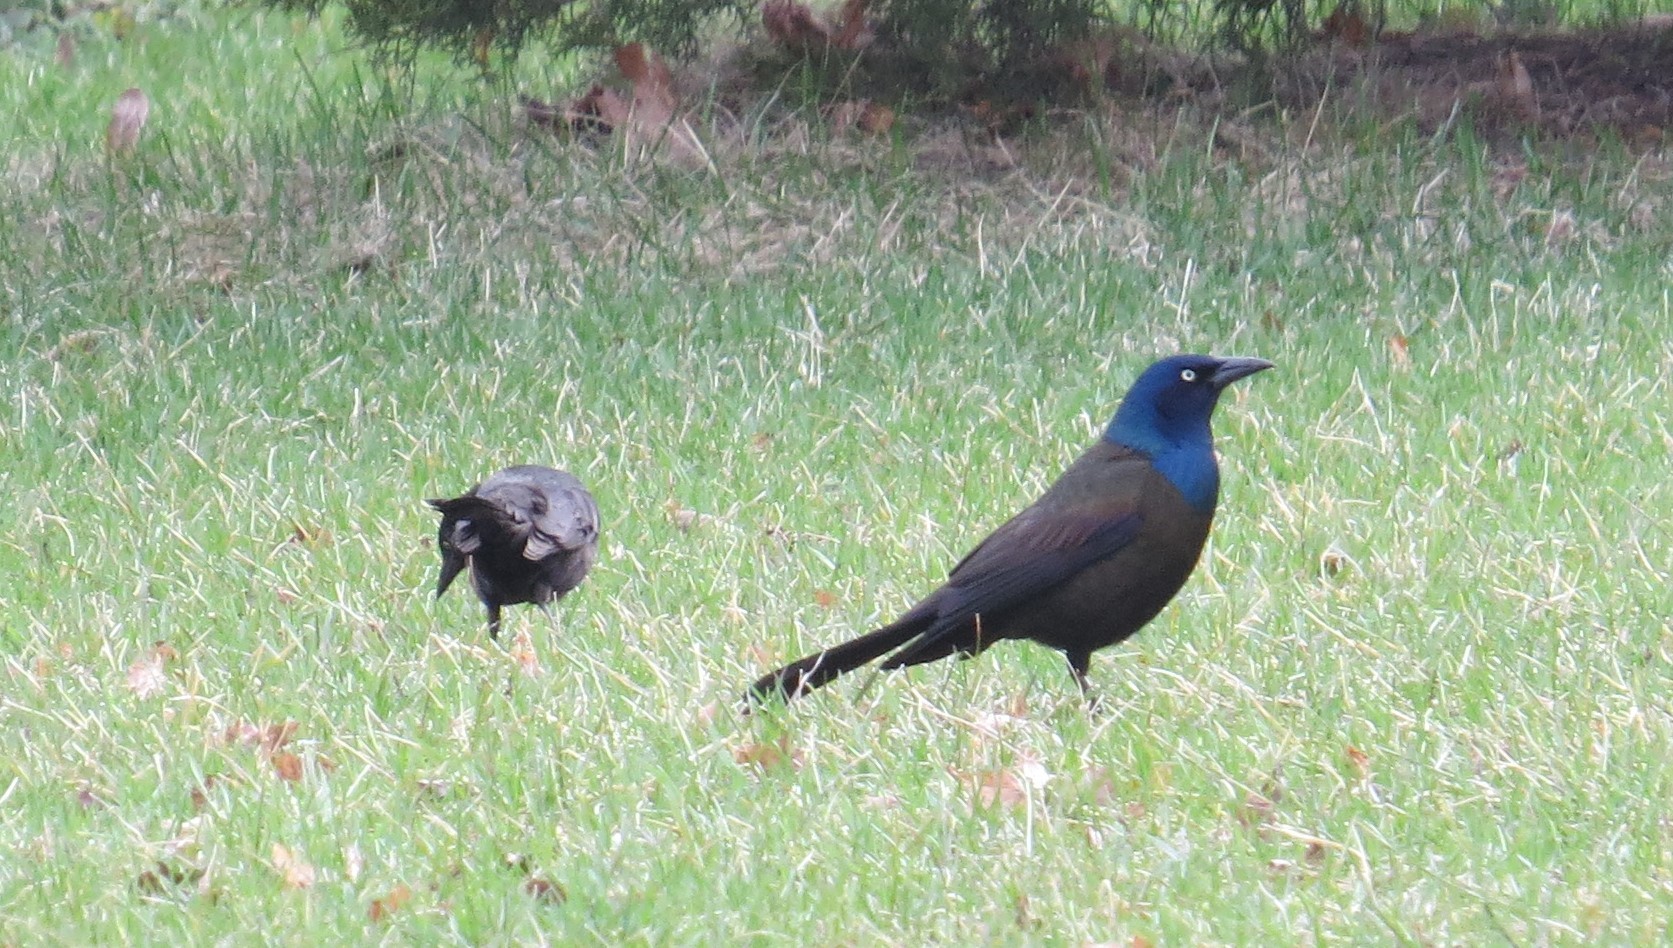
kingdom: Animalia
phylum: Chordata
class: Aves
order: Passeriformes
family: Icteridae
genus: Quiscalus
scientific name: Quiscalus quiscula
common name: Common grackle
